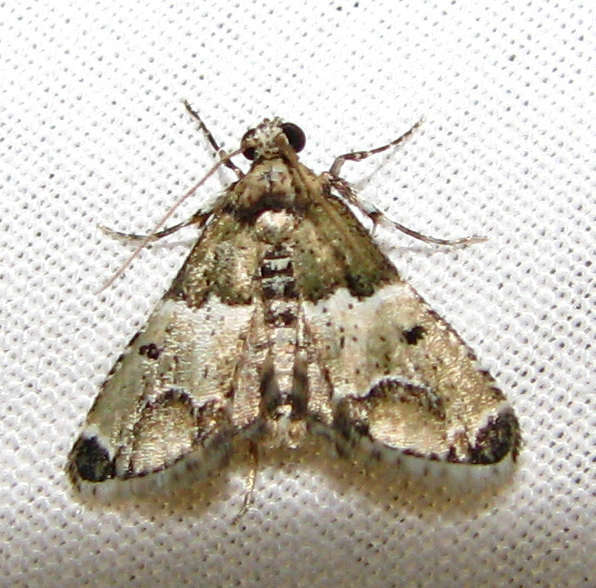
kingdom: Animalia
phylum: Arthropoda
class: Insecta
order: Lepidoptera
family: Pyralidae
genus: Arescoptera
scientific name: Arescoptera idiotypa
